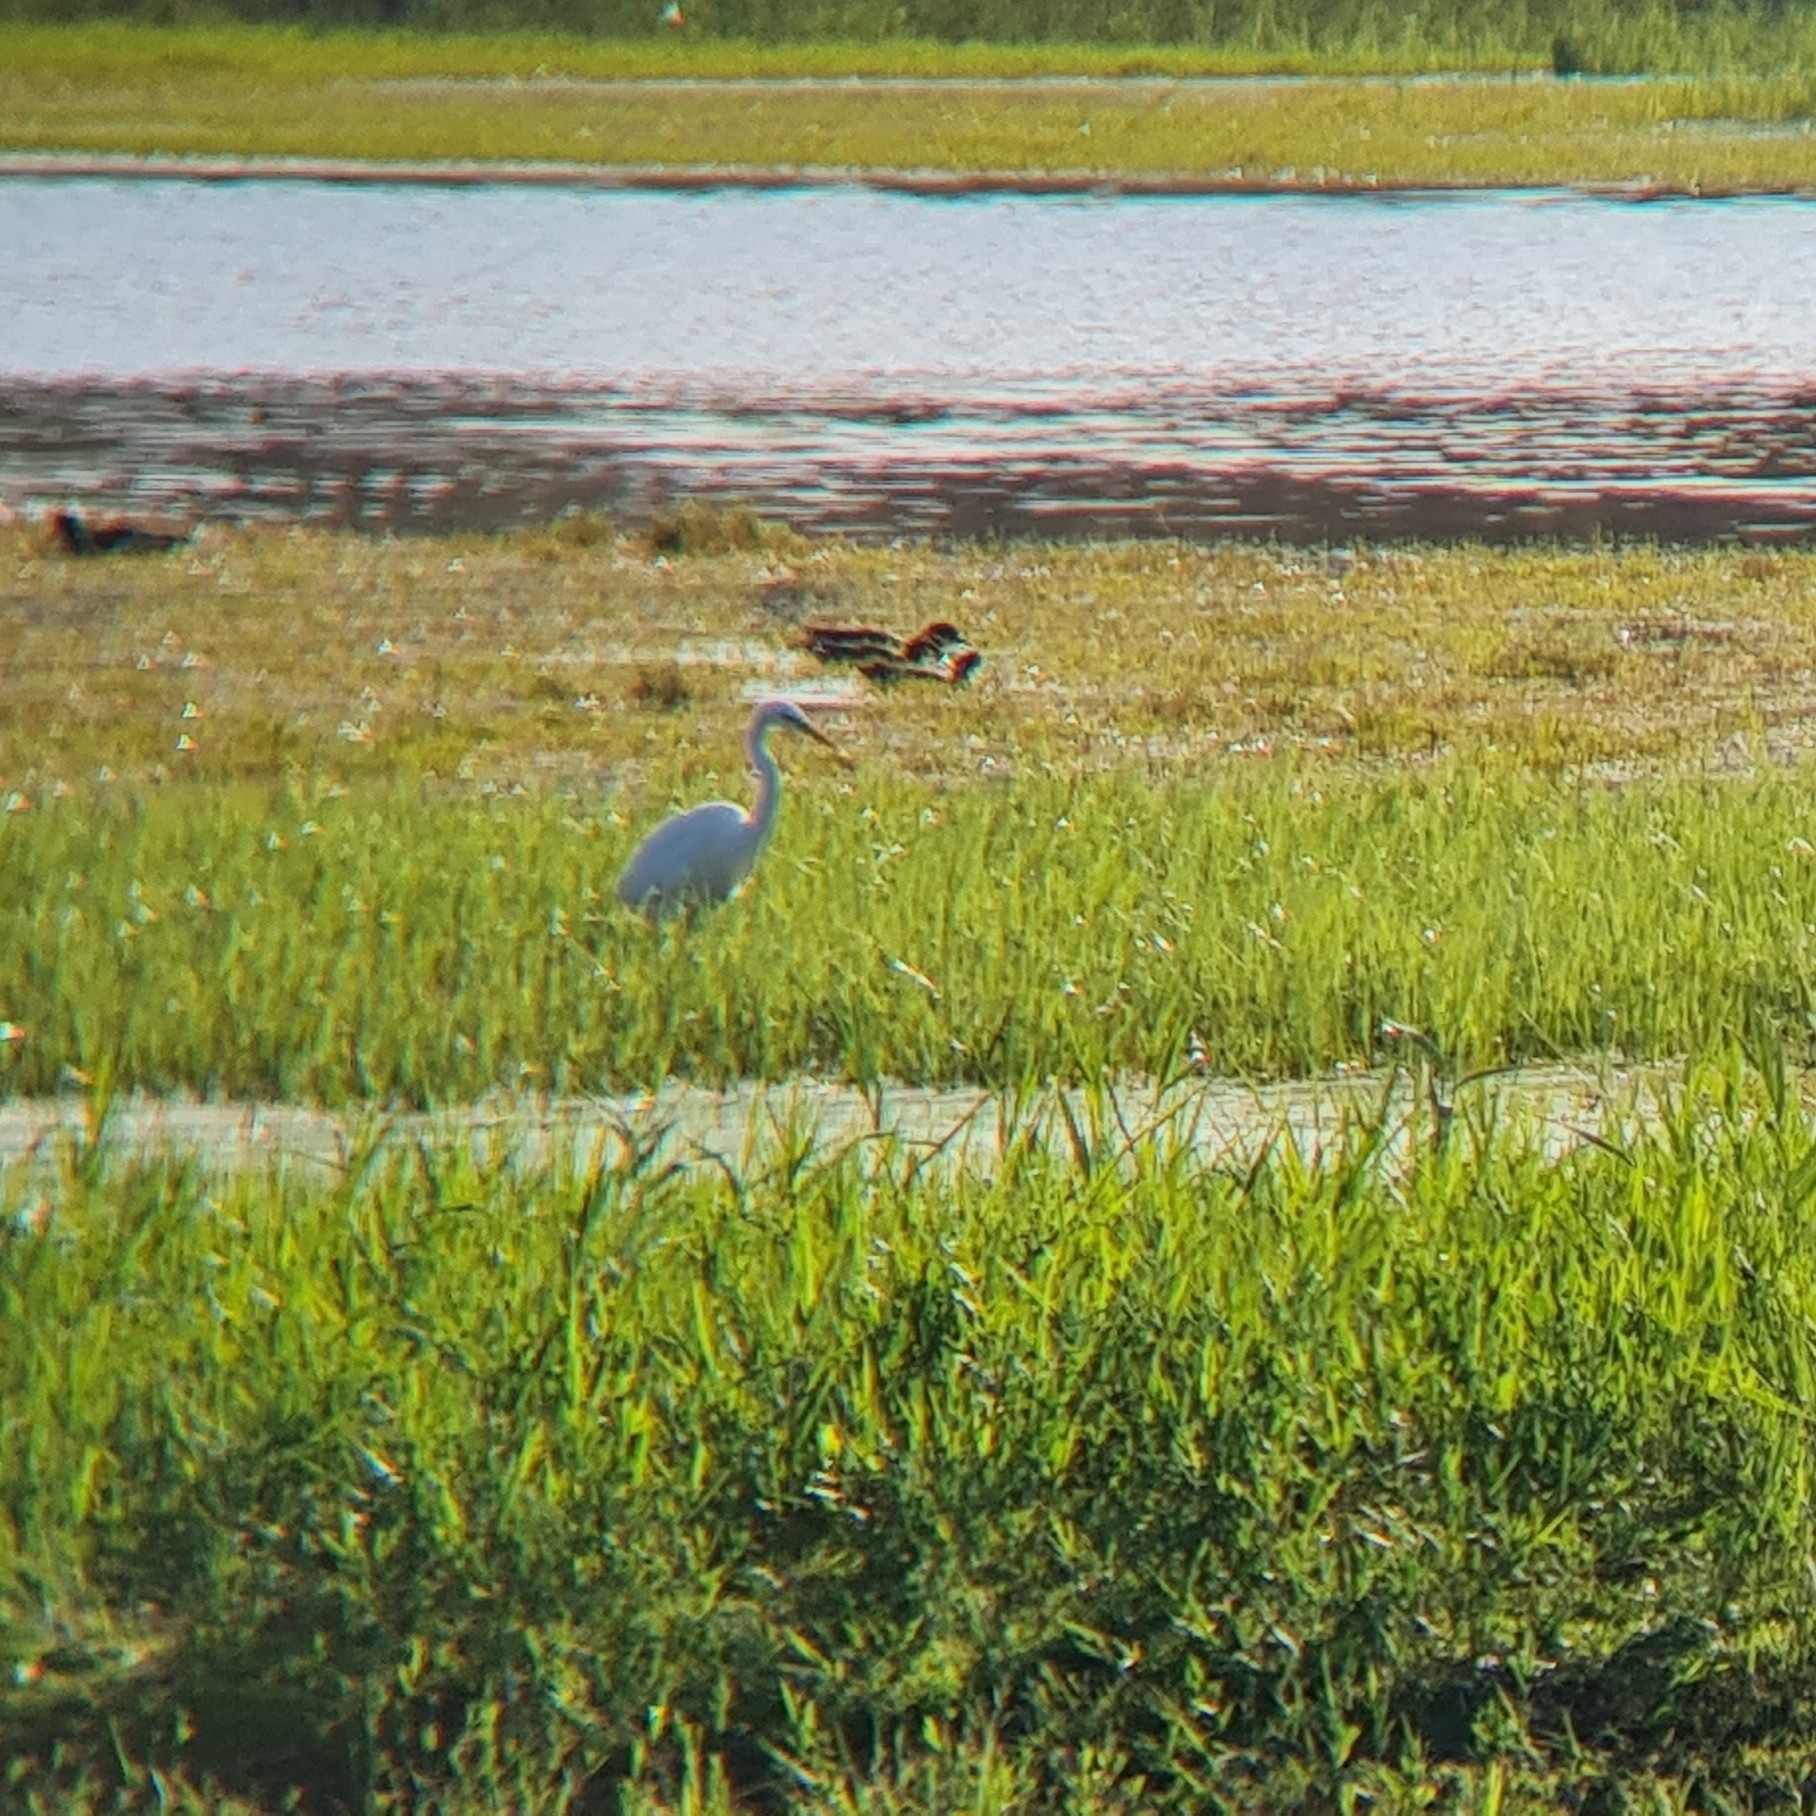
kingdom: Animalia
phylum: Chordata
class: Aves
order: Pelecaniformes
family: Ardeidae
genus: Ardea
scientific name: Ardea alba
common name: Great egret
